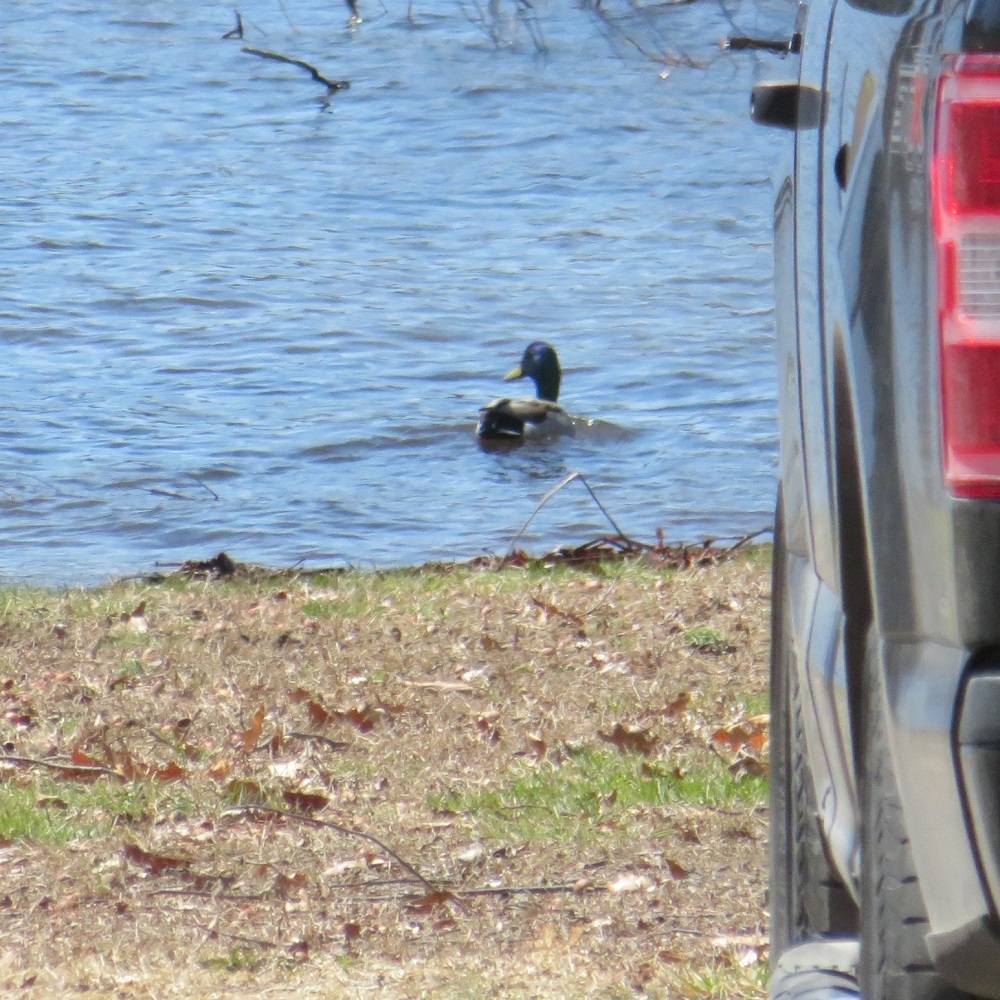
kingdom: Animalia
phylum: Chordata
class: Aves
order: Anseriformes
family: Anatidae
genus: Anas
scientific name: Anas platyrhynchos
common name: Mallard
